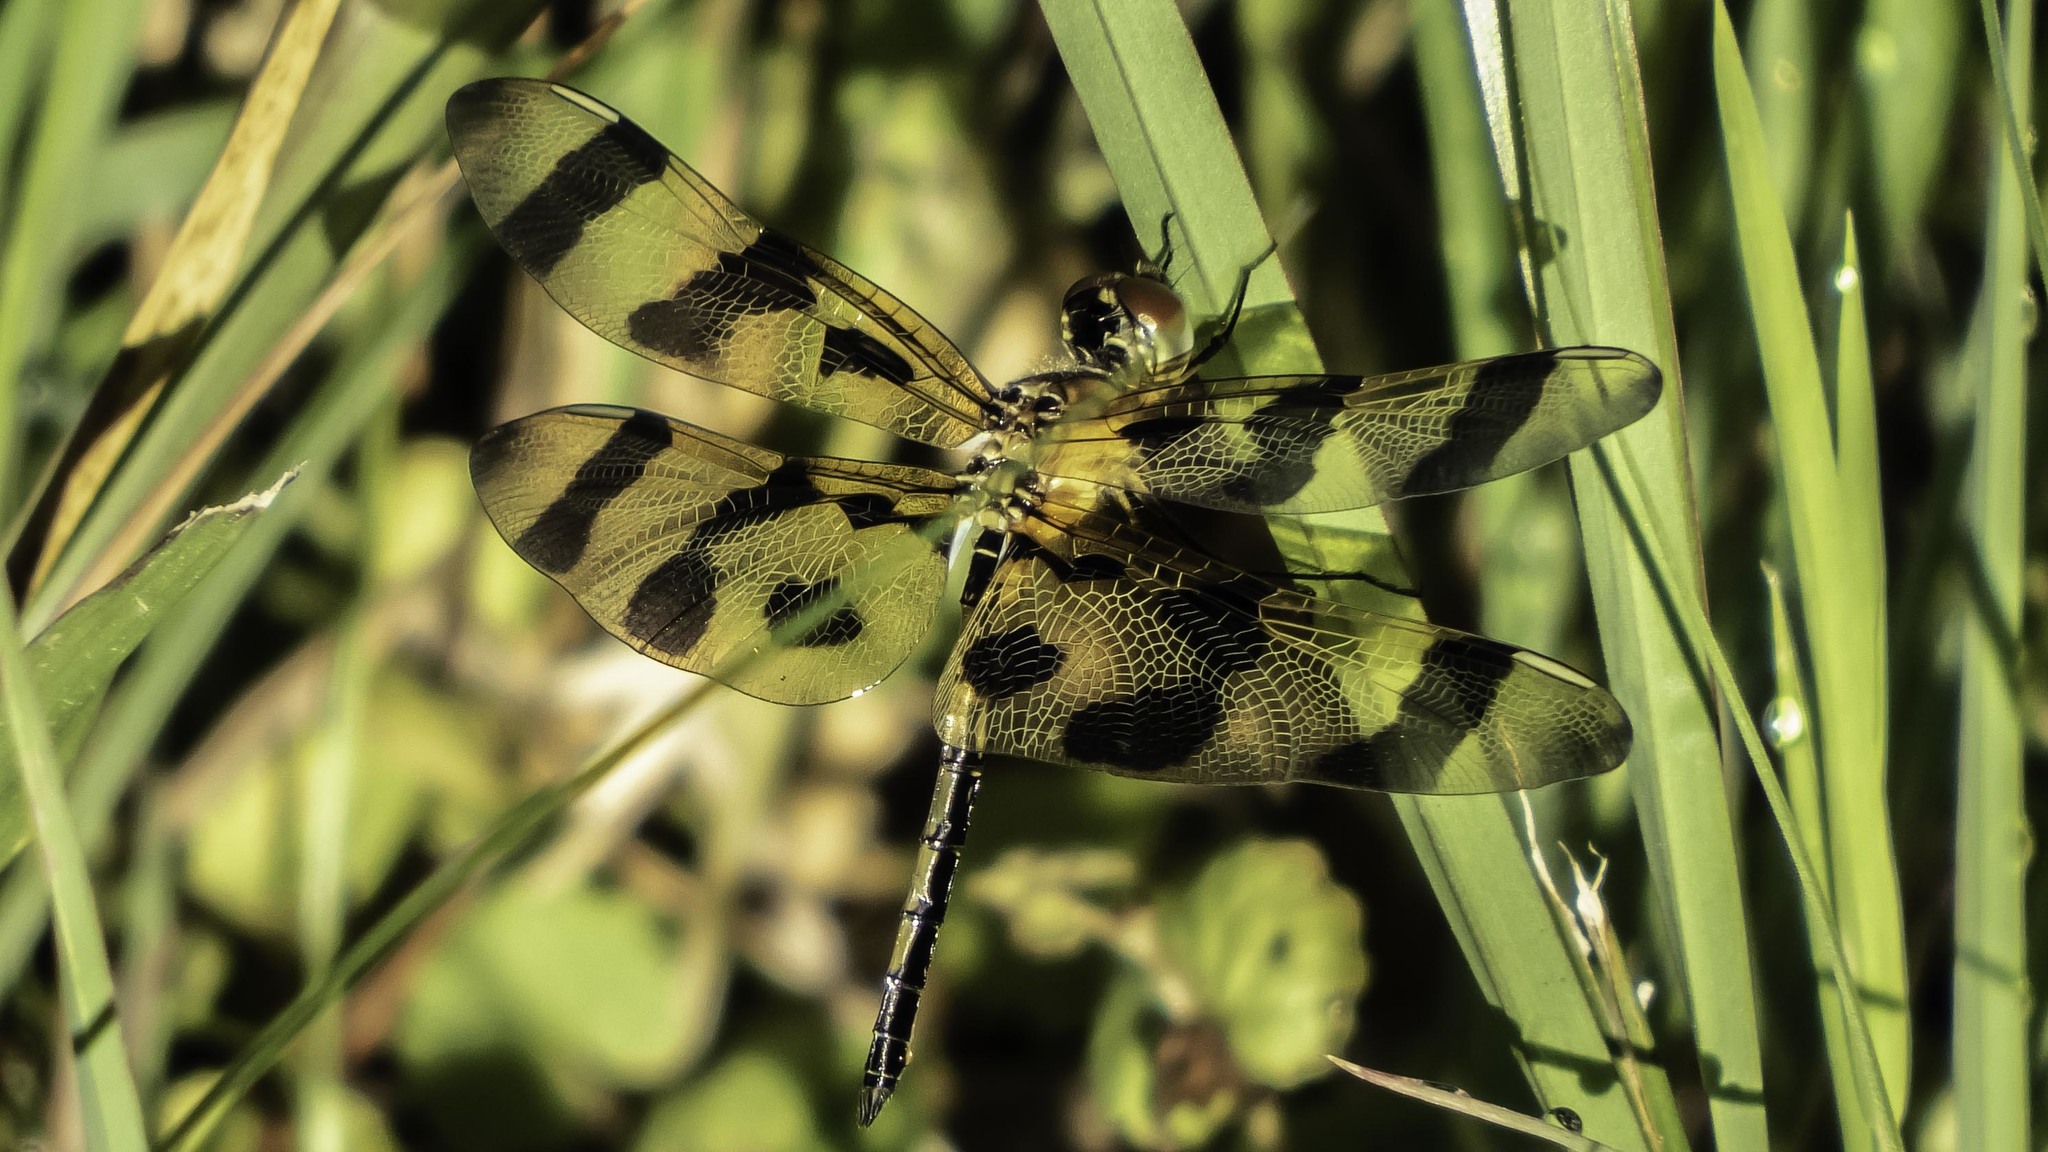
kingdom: Animalia
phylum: Arthropoda
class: Insecta
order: Odonata
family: Libellulidae
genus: Celithemis
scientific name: Celithemis eponina
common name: Halloween pennant
